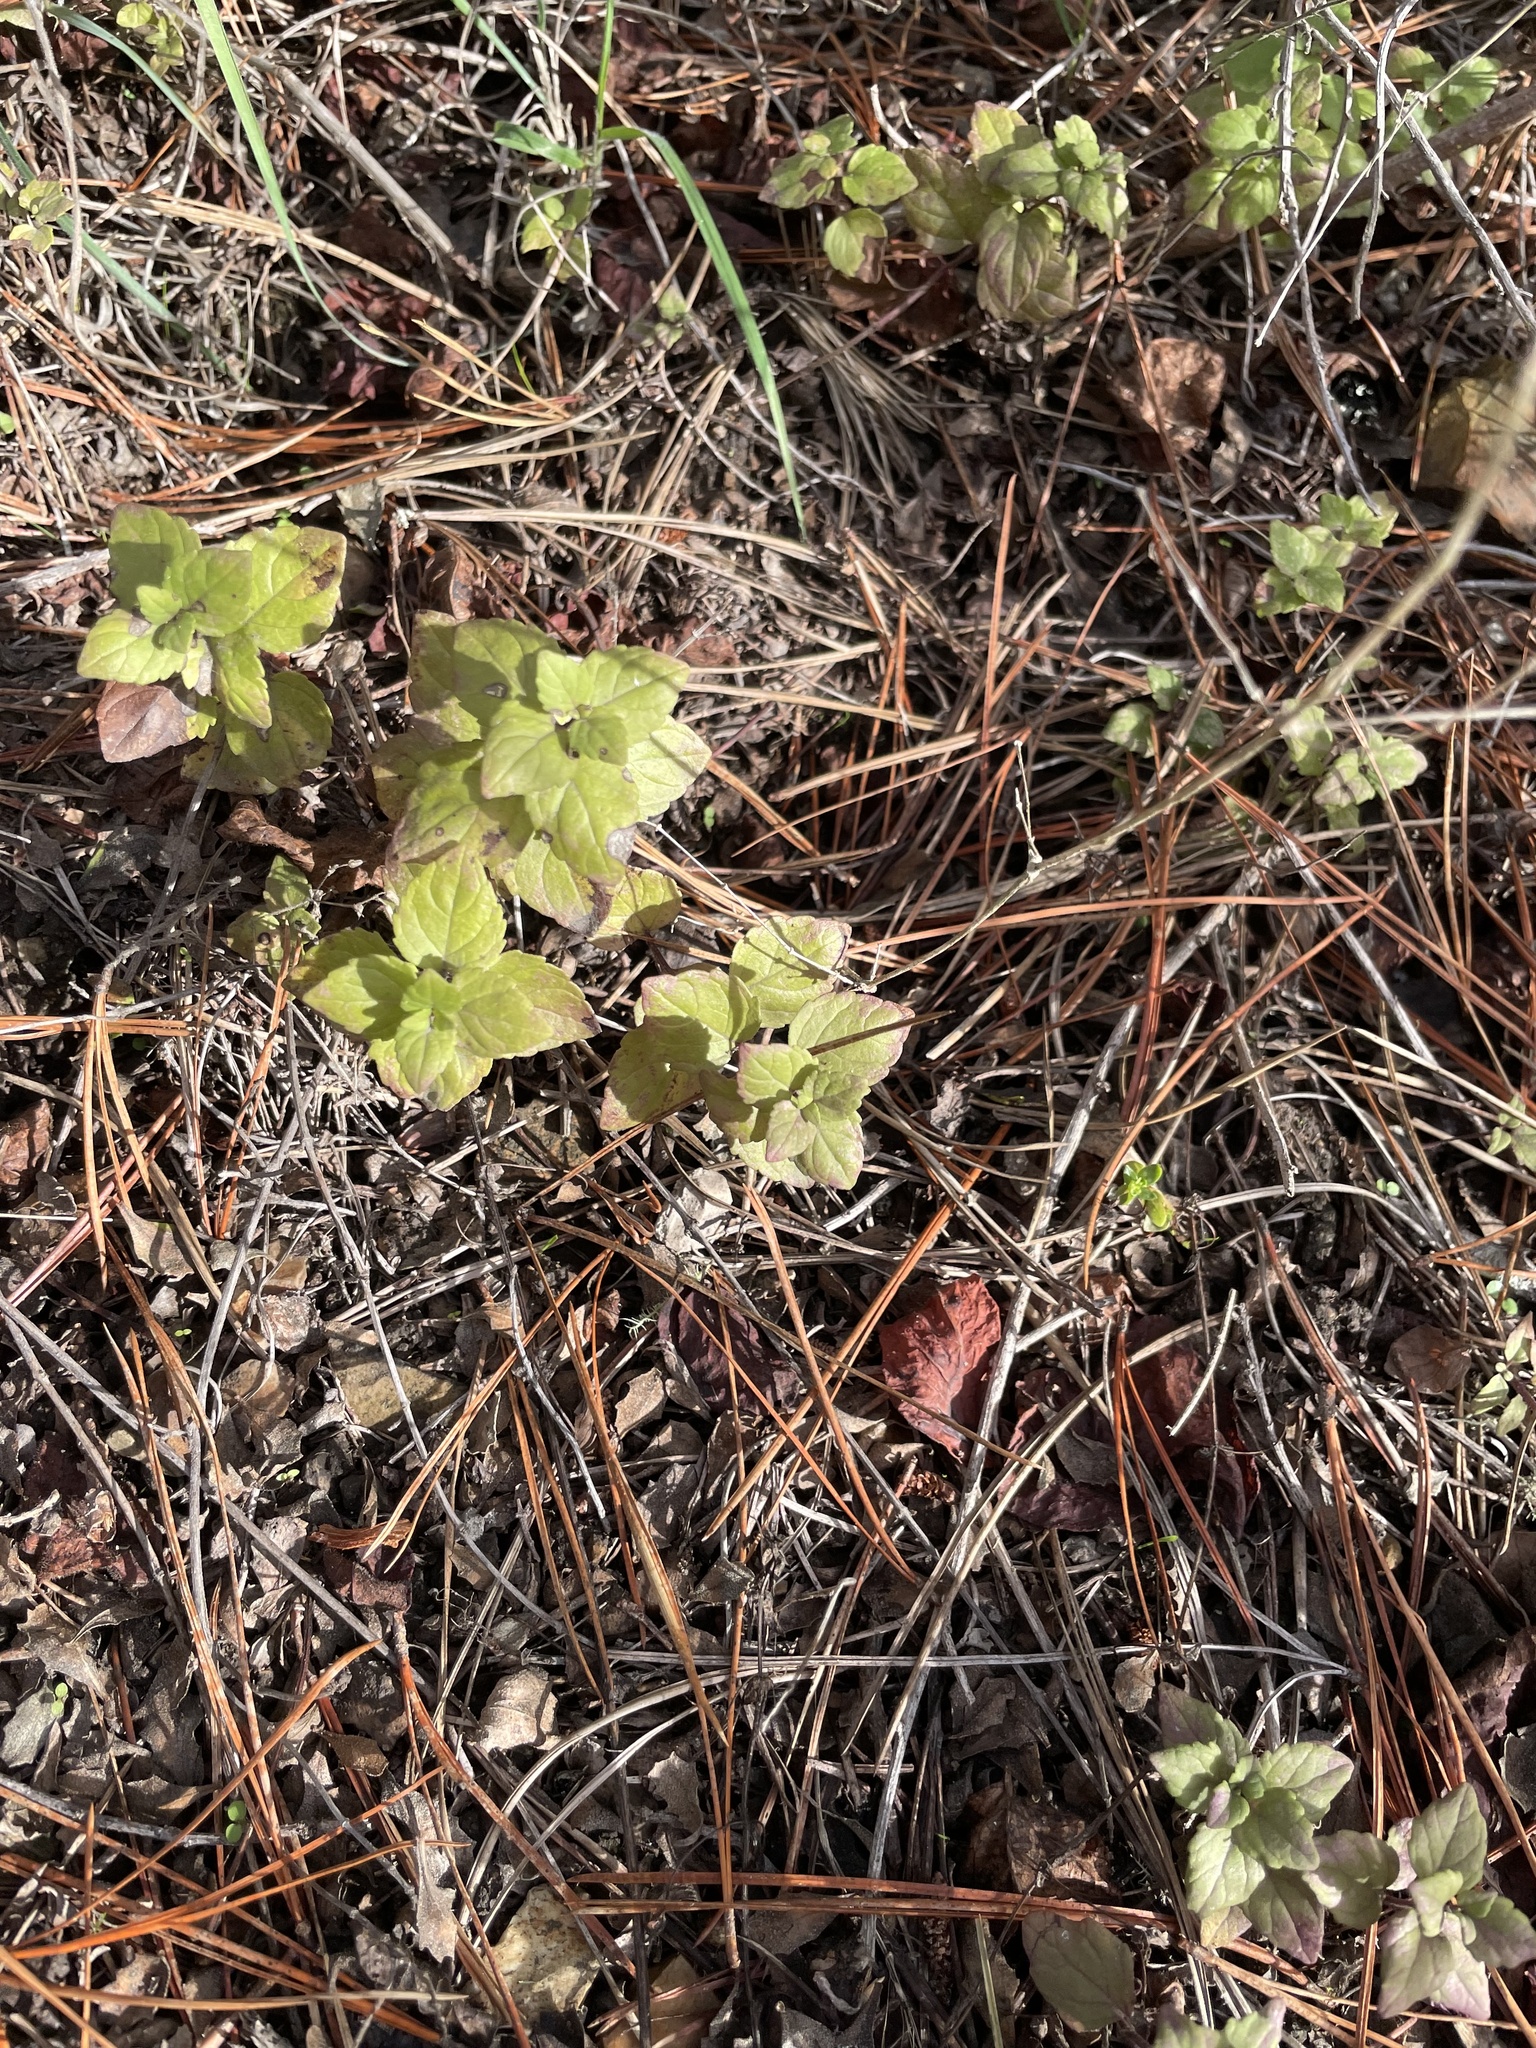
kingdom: Plantae
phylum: Tracheophyta
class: Magnoliopsida
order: Lamiales
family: Lamiaceae
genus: Micromeria
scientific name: Micromeria douglasii
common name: Yerba buena
